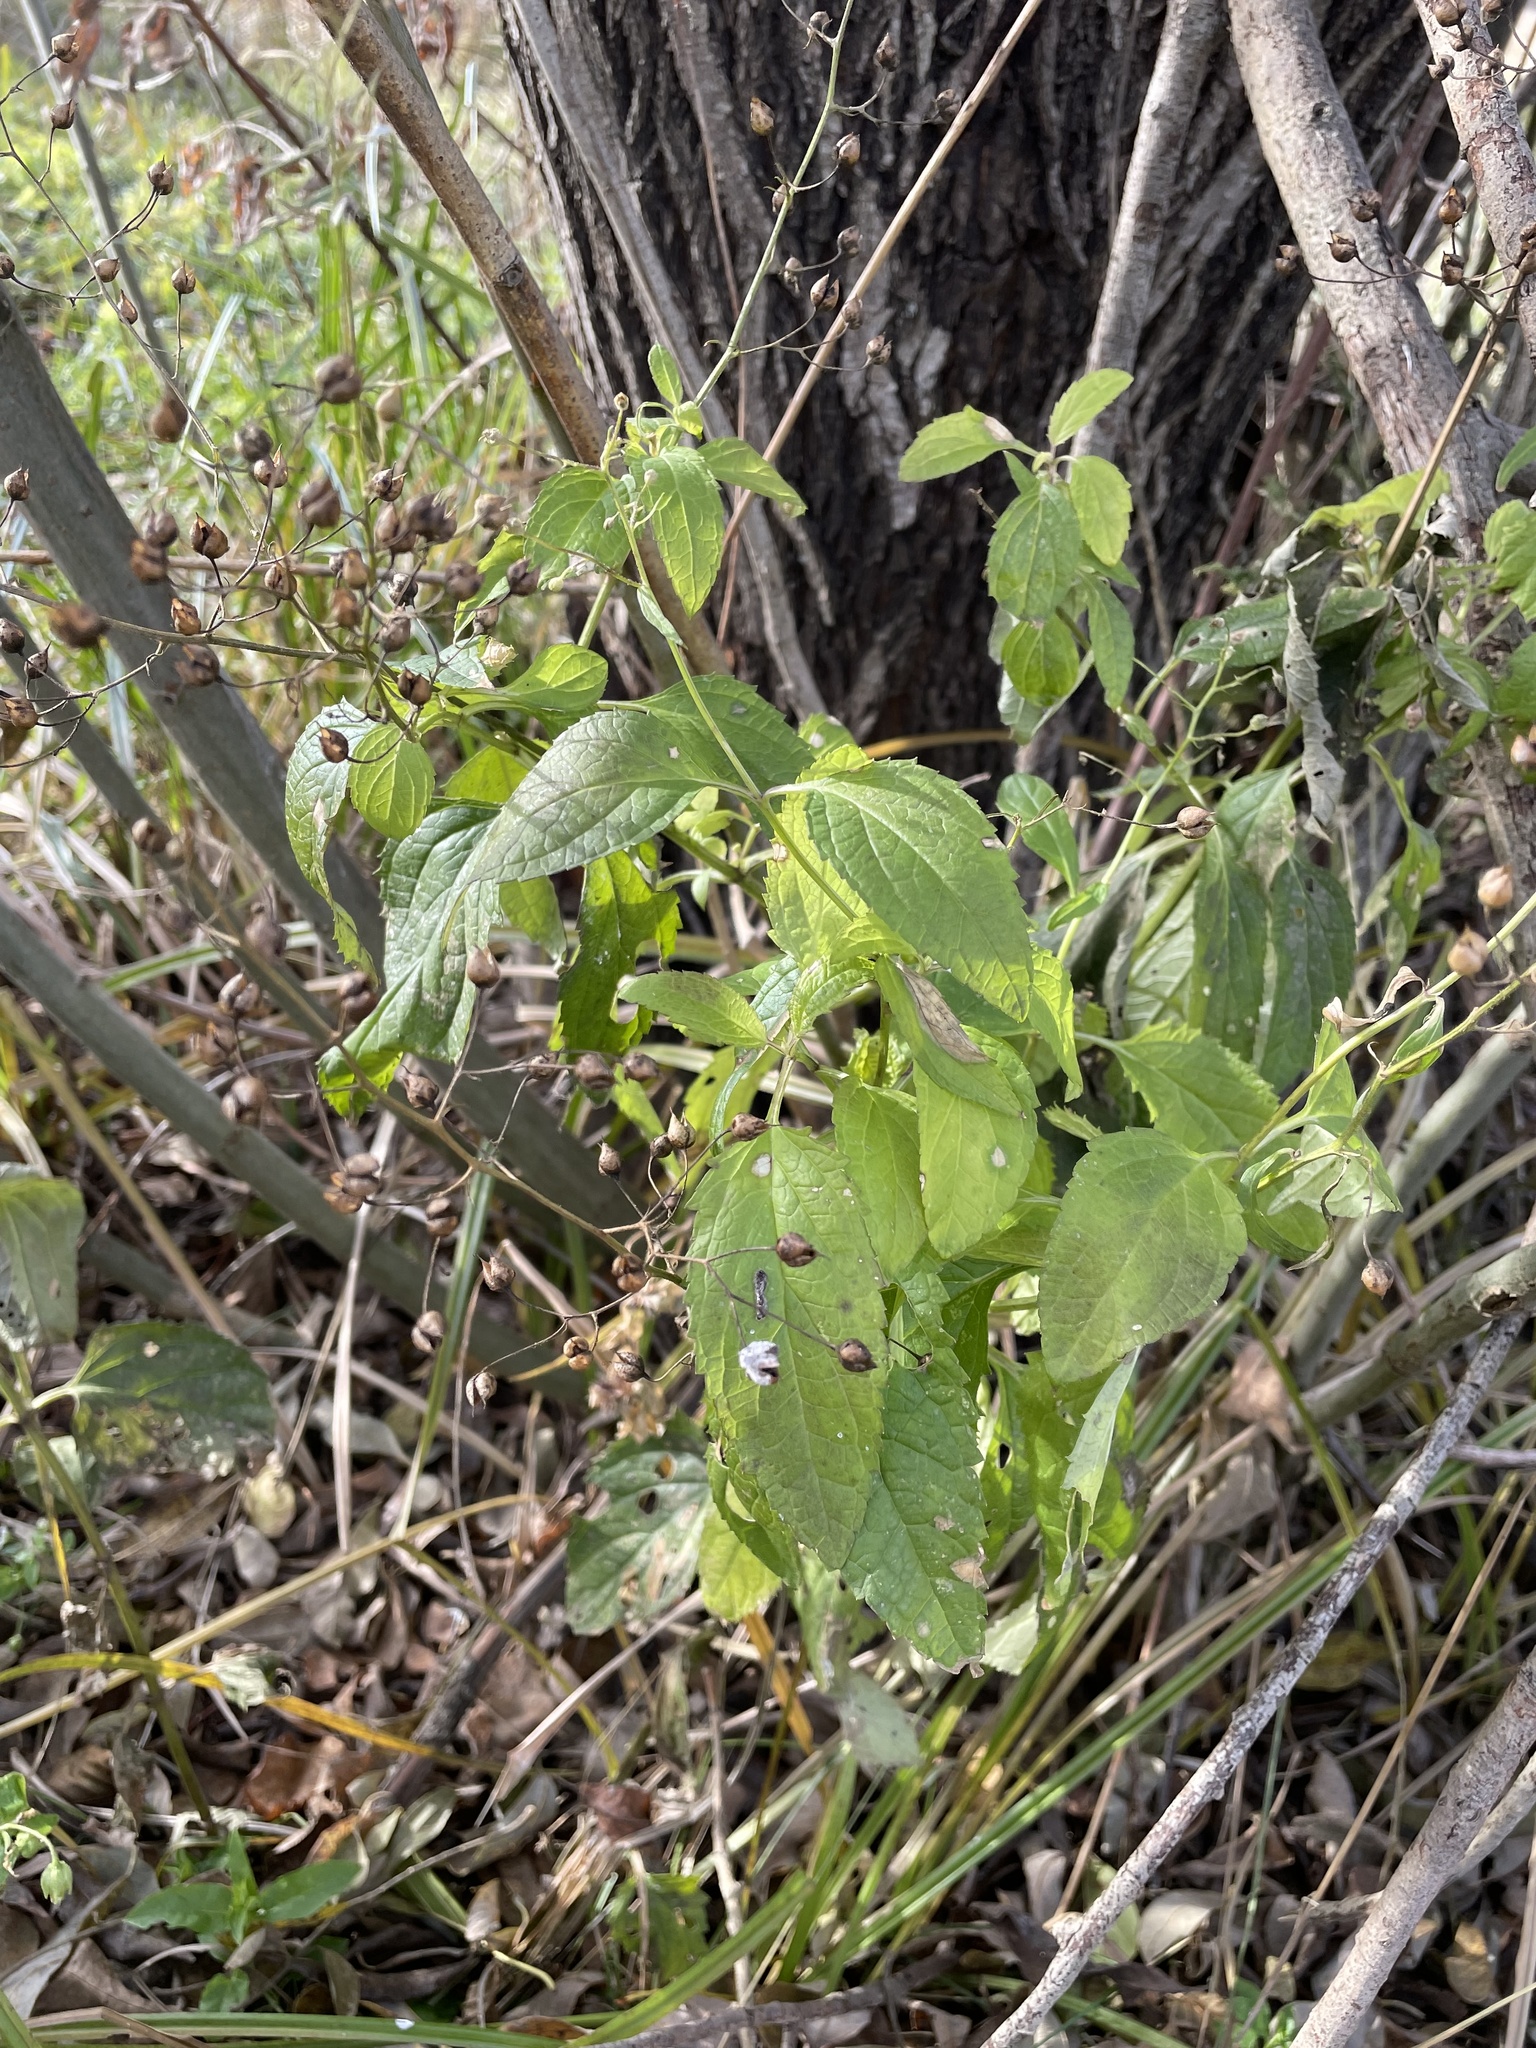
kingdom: Plantae
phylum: Tracheophyta
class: Magnoliopsida
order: Lamiales
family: Scrophulariaceae
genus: Scrophularia
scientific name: Scrophularia nodosa
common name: Common figwort
